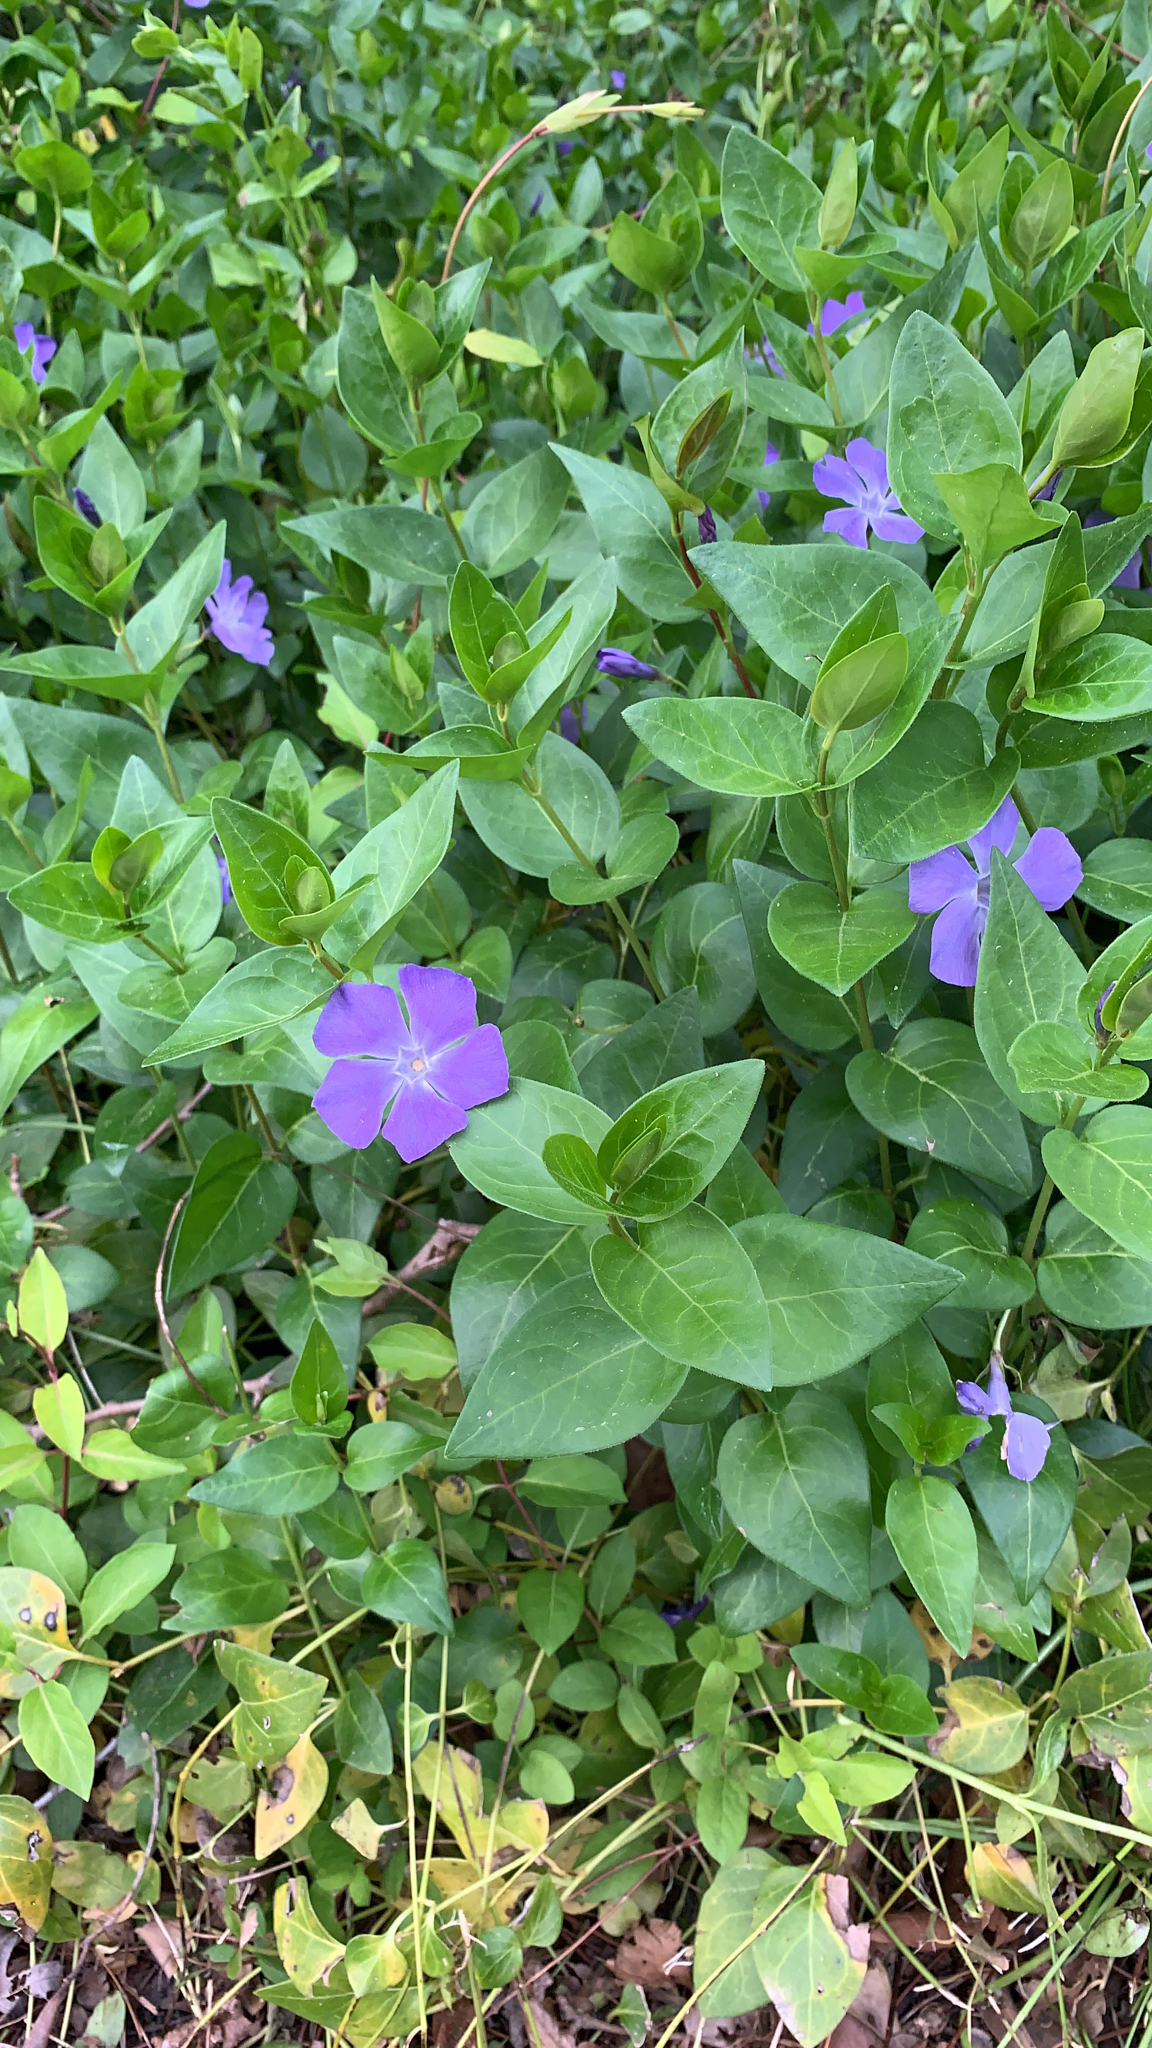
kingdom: Plantae
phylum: Tracheophyta
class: Magnoliopsida
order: Gentianales
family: Apocynaceae
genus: Vinca
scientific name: Vinca major
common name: Greater periwinkle
